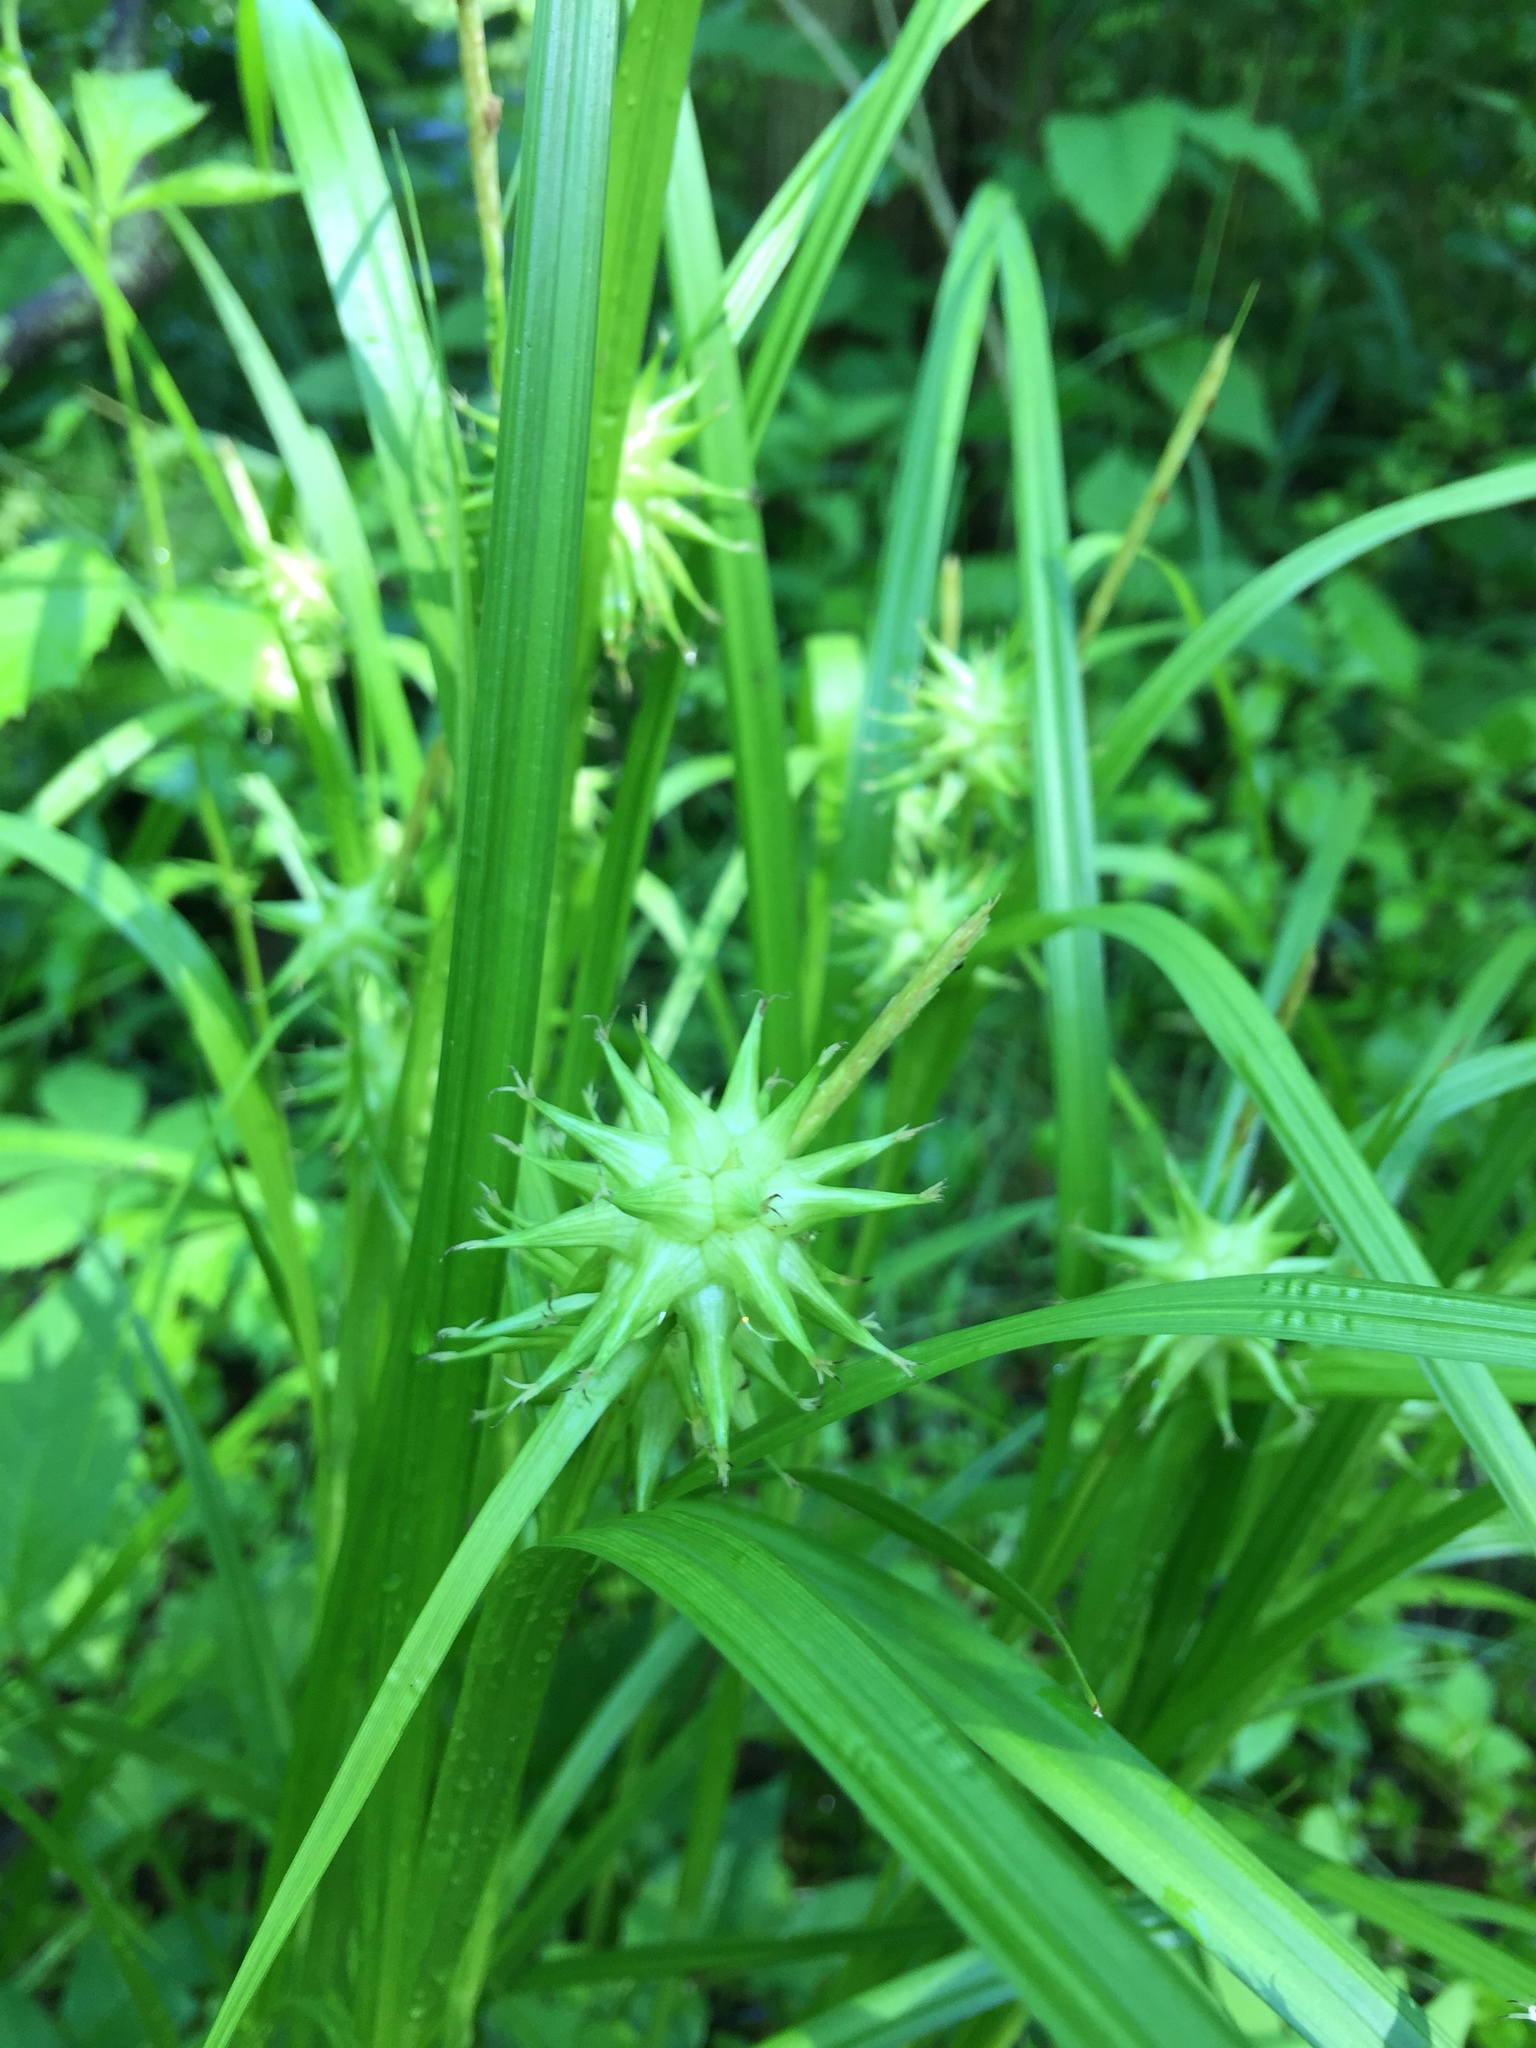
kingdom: Plantae
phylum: Tracheophyta
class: Liliopsida
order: Poales
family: Cyperaceae
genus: Carex
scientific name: Carex grayi
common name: Asa gray's sedge
